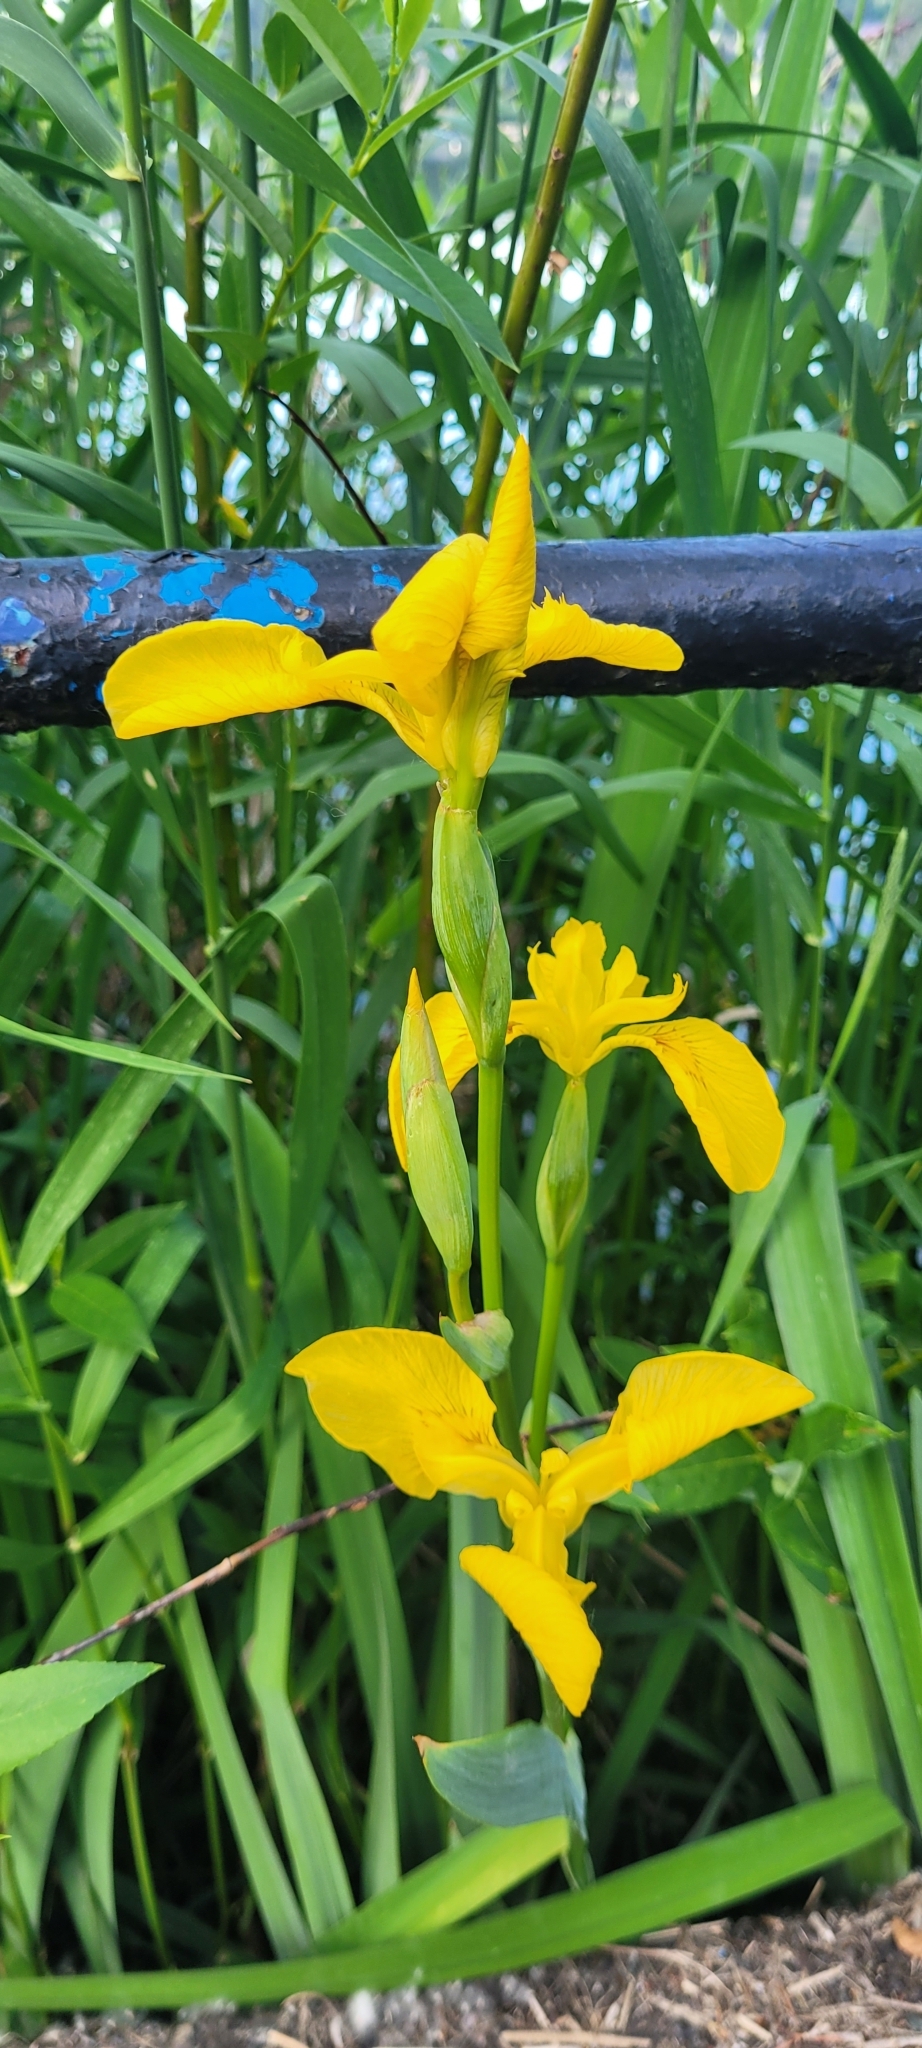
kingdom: Plantae
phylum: Tracheophyta
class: Liliopsida
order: Asparagales
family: Iridaceae
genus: Iris
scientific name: Iris pseudacorus
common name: Yellow flag
